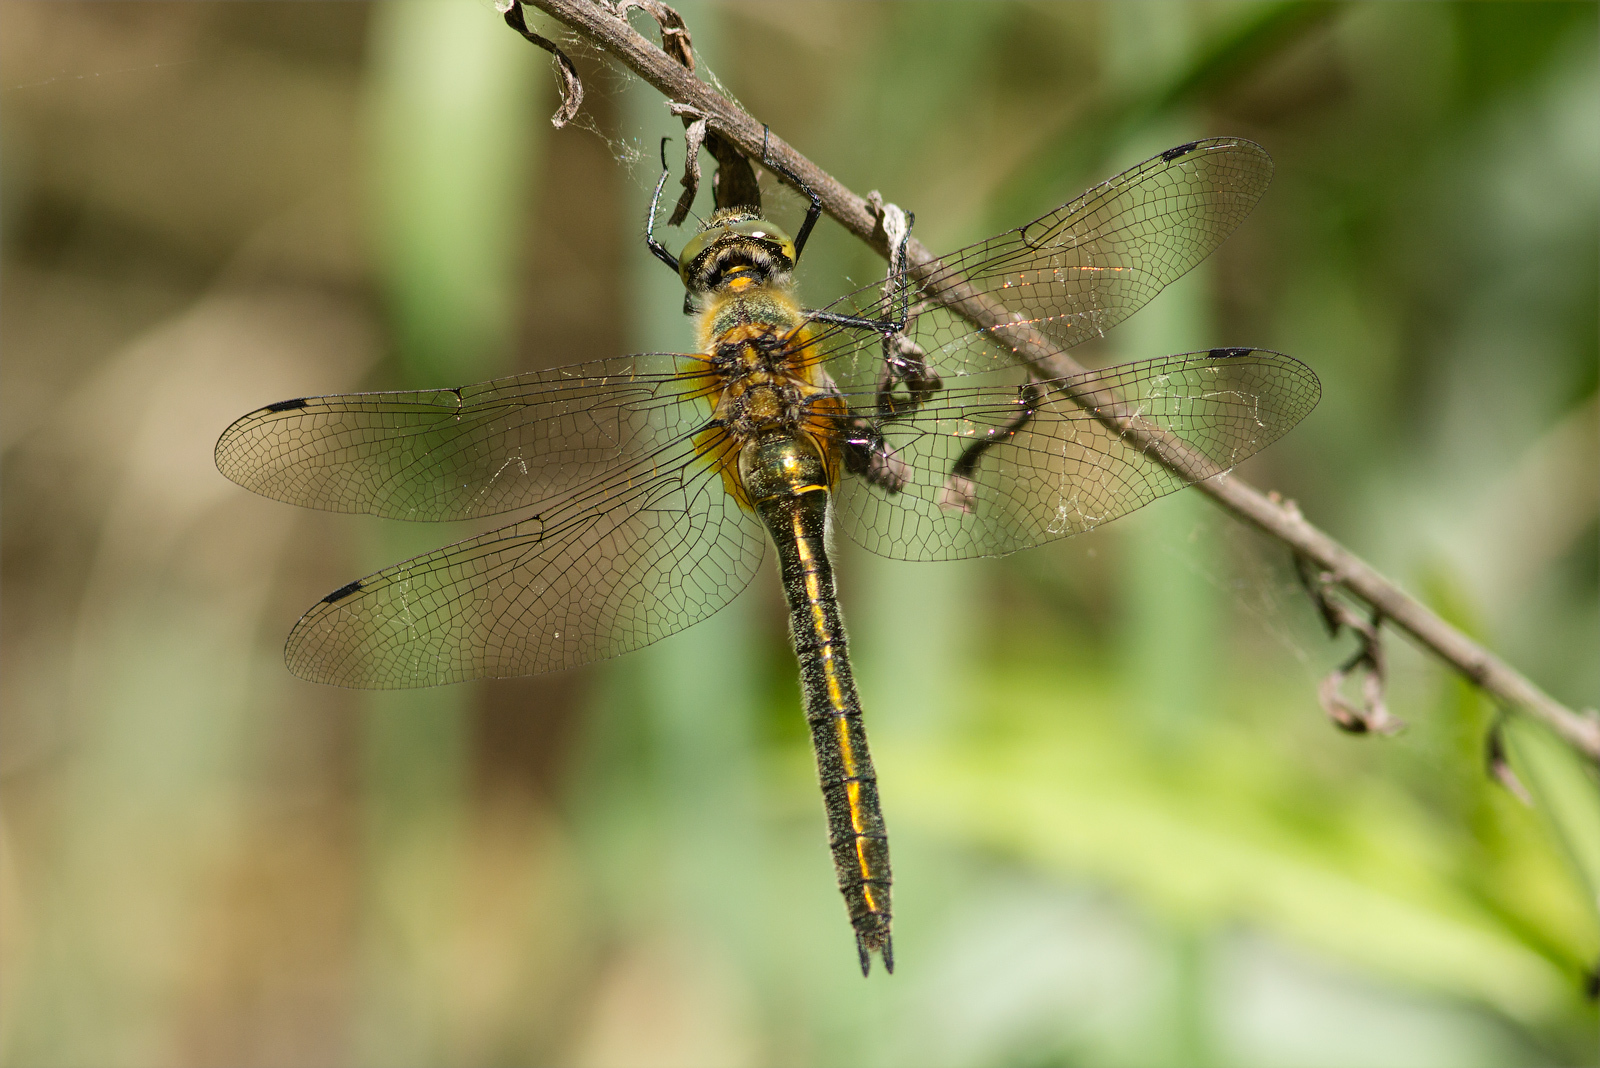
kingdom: Animalia
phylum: Arthropoda
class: Insecta
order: Odonata
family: Corduliidae
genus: Cordulia
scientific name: Cordulia aenea
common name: Downy emerald
